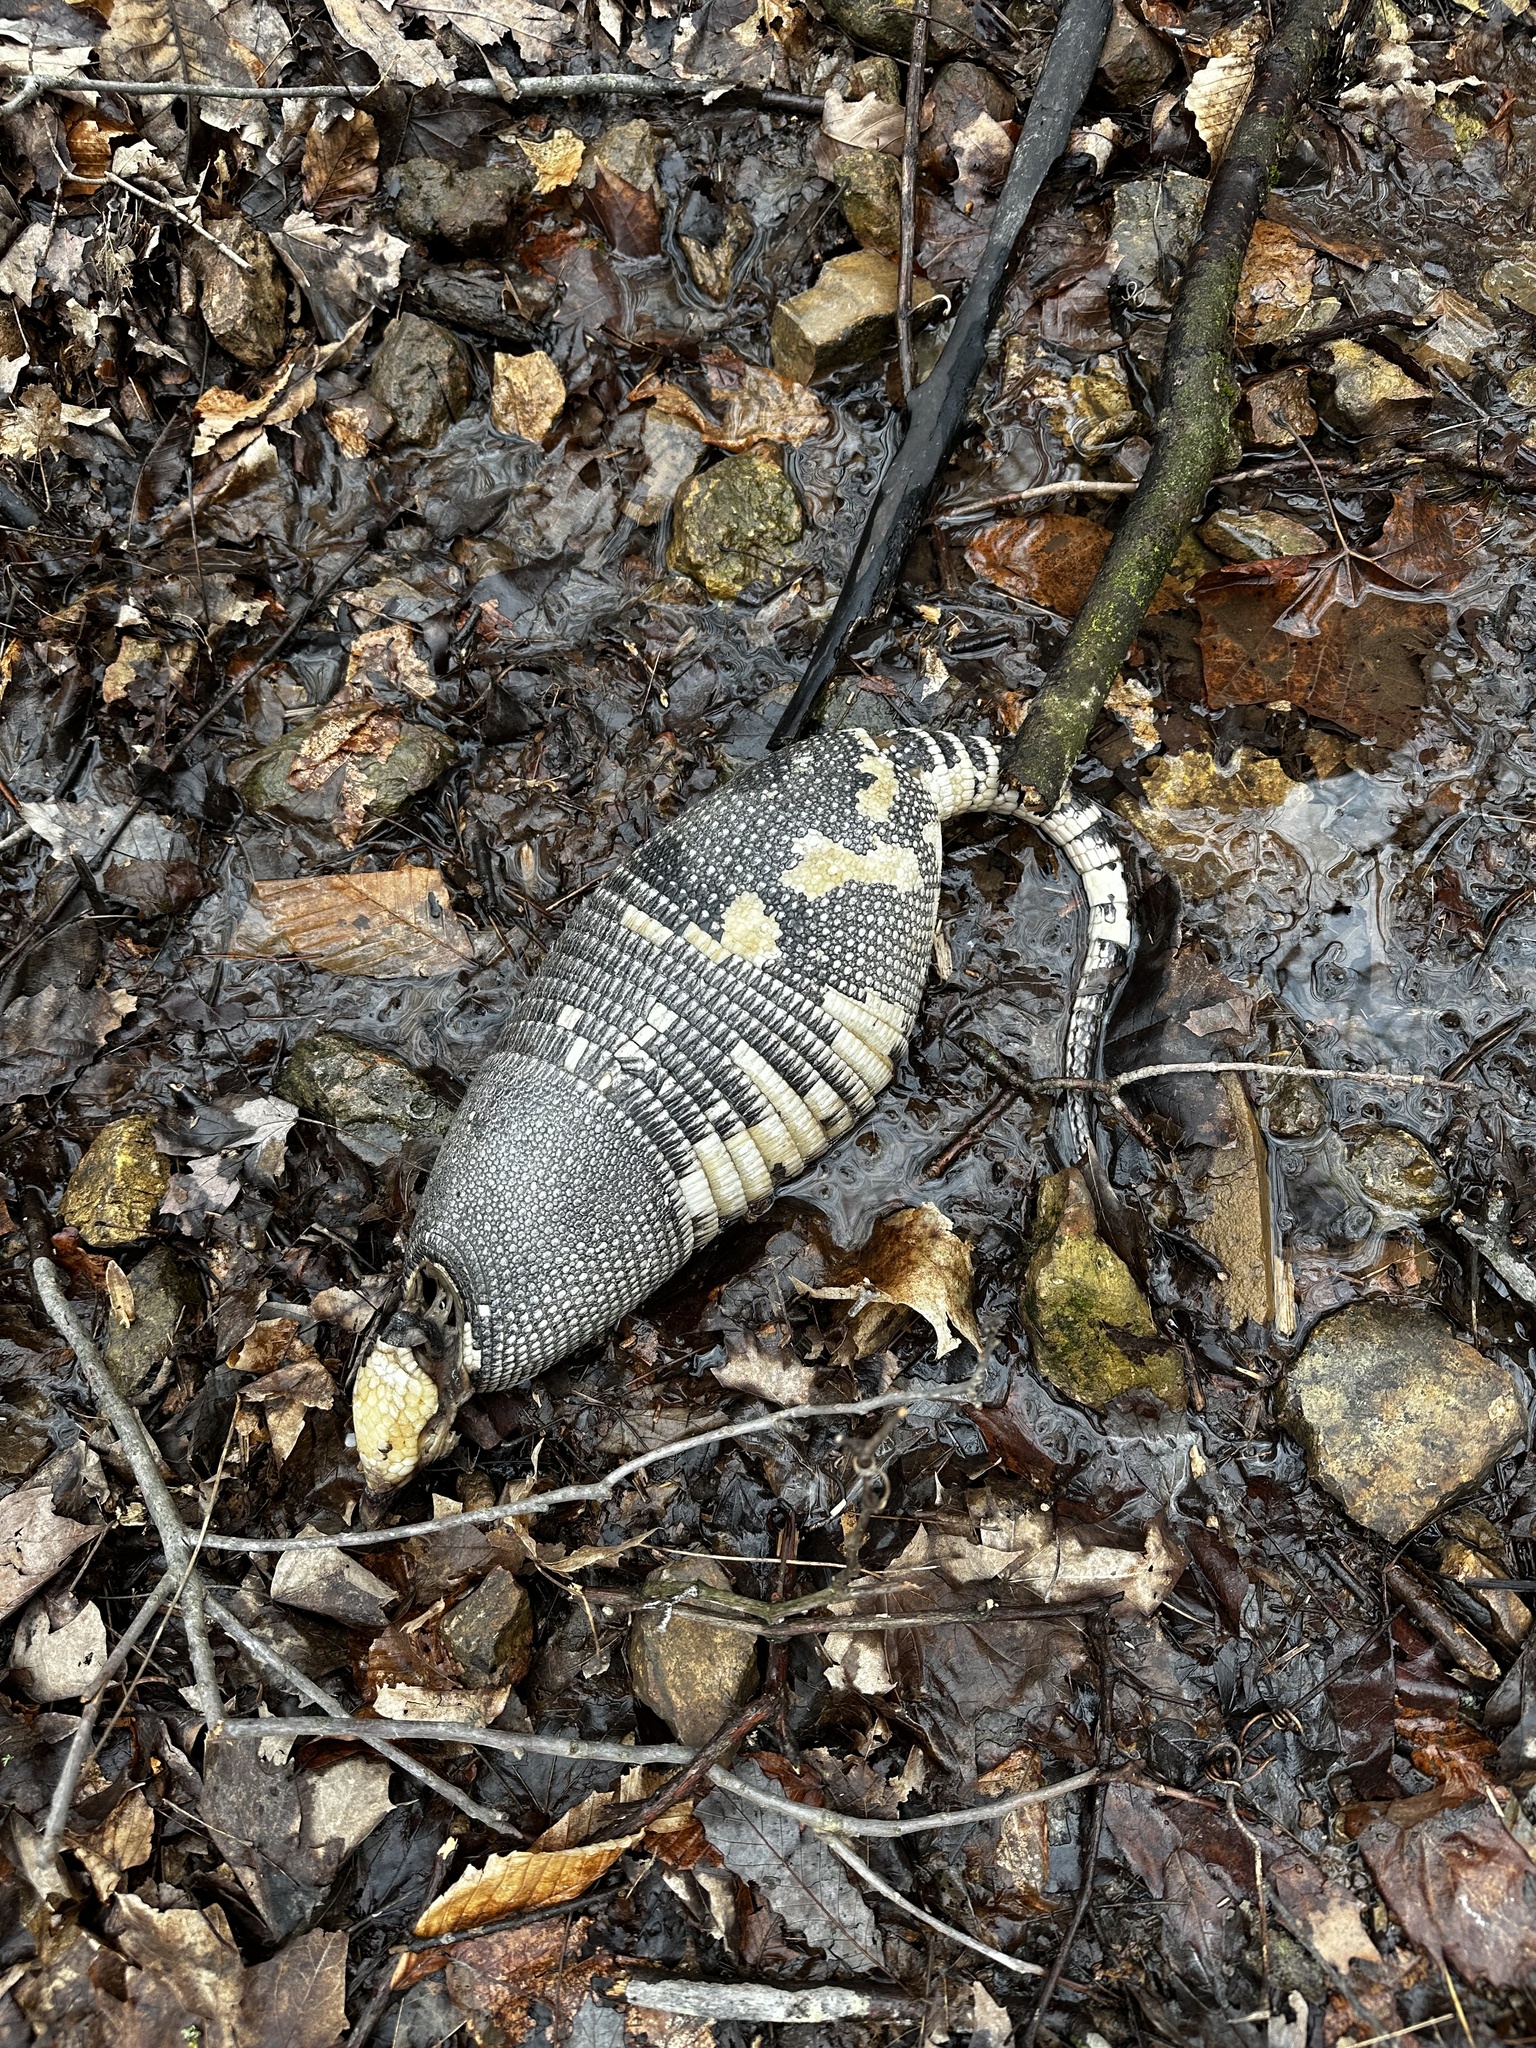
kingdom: Animalia
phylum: Chordata
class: Mammalia
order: Cingulata
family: Dasypodidae
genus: Dasypus
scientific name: Dasypus novemcinctus
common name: Nine-banded armadillo
